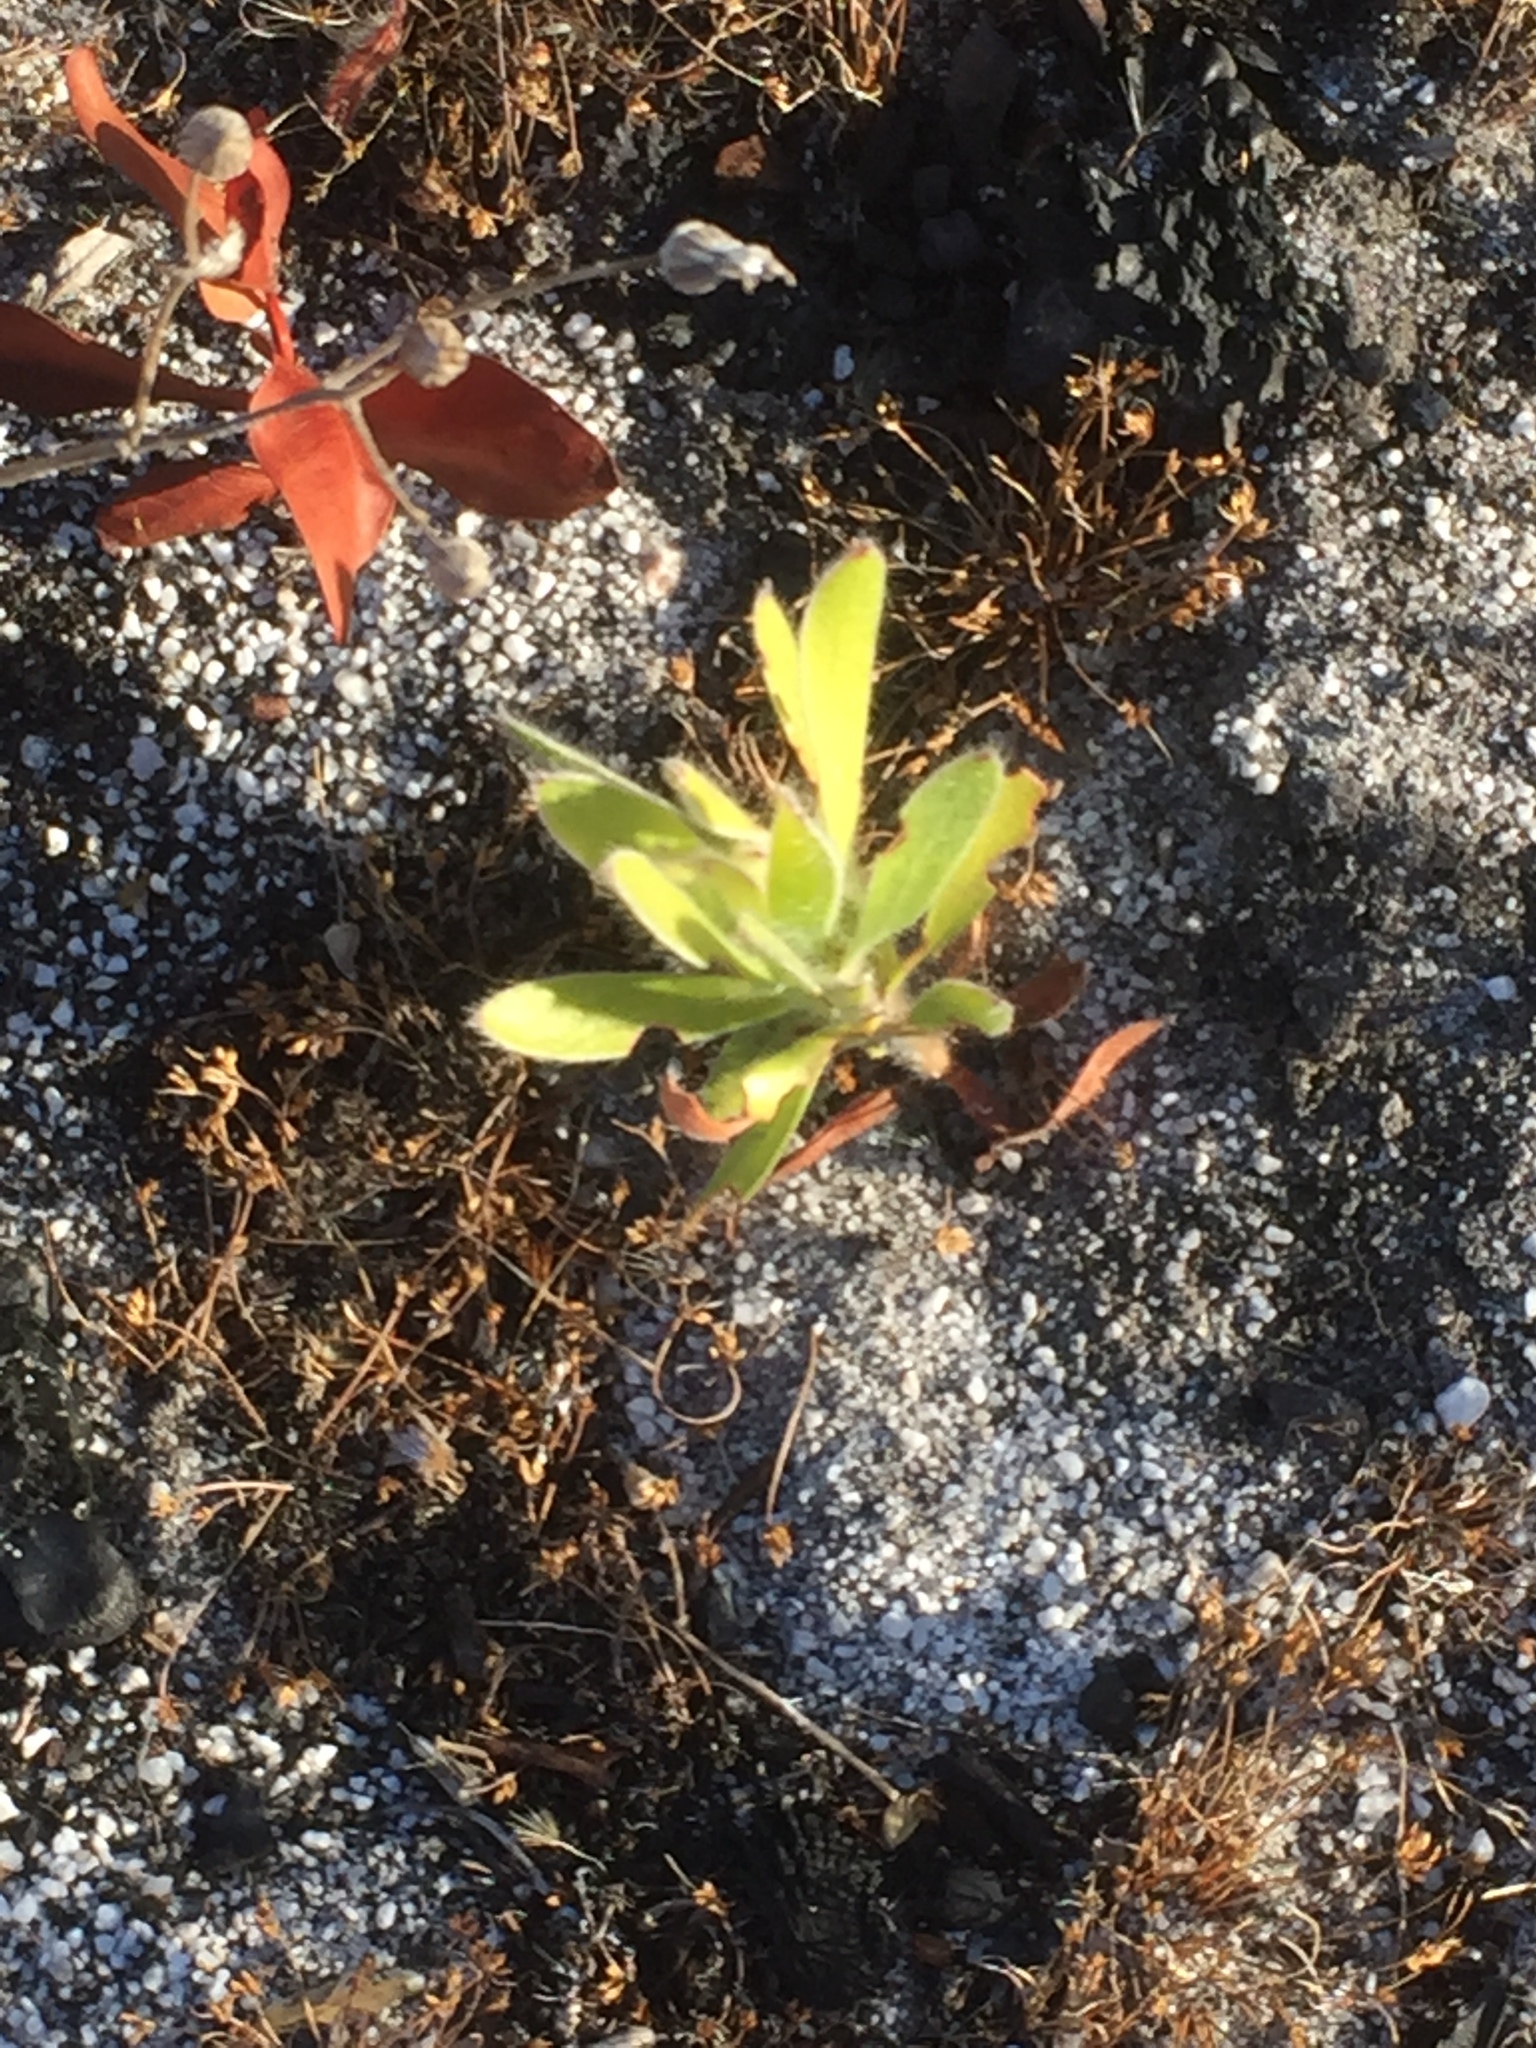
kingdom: Plantae
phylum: Tracheophyta
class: Magnoliopsida
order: Proteales
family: Proteaceae
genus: Leucospermum
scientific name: Leucospermum conocarpodendron
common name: Tree pincushion
